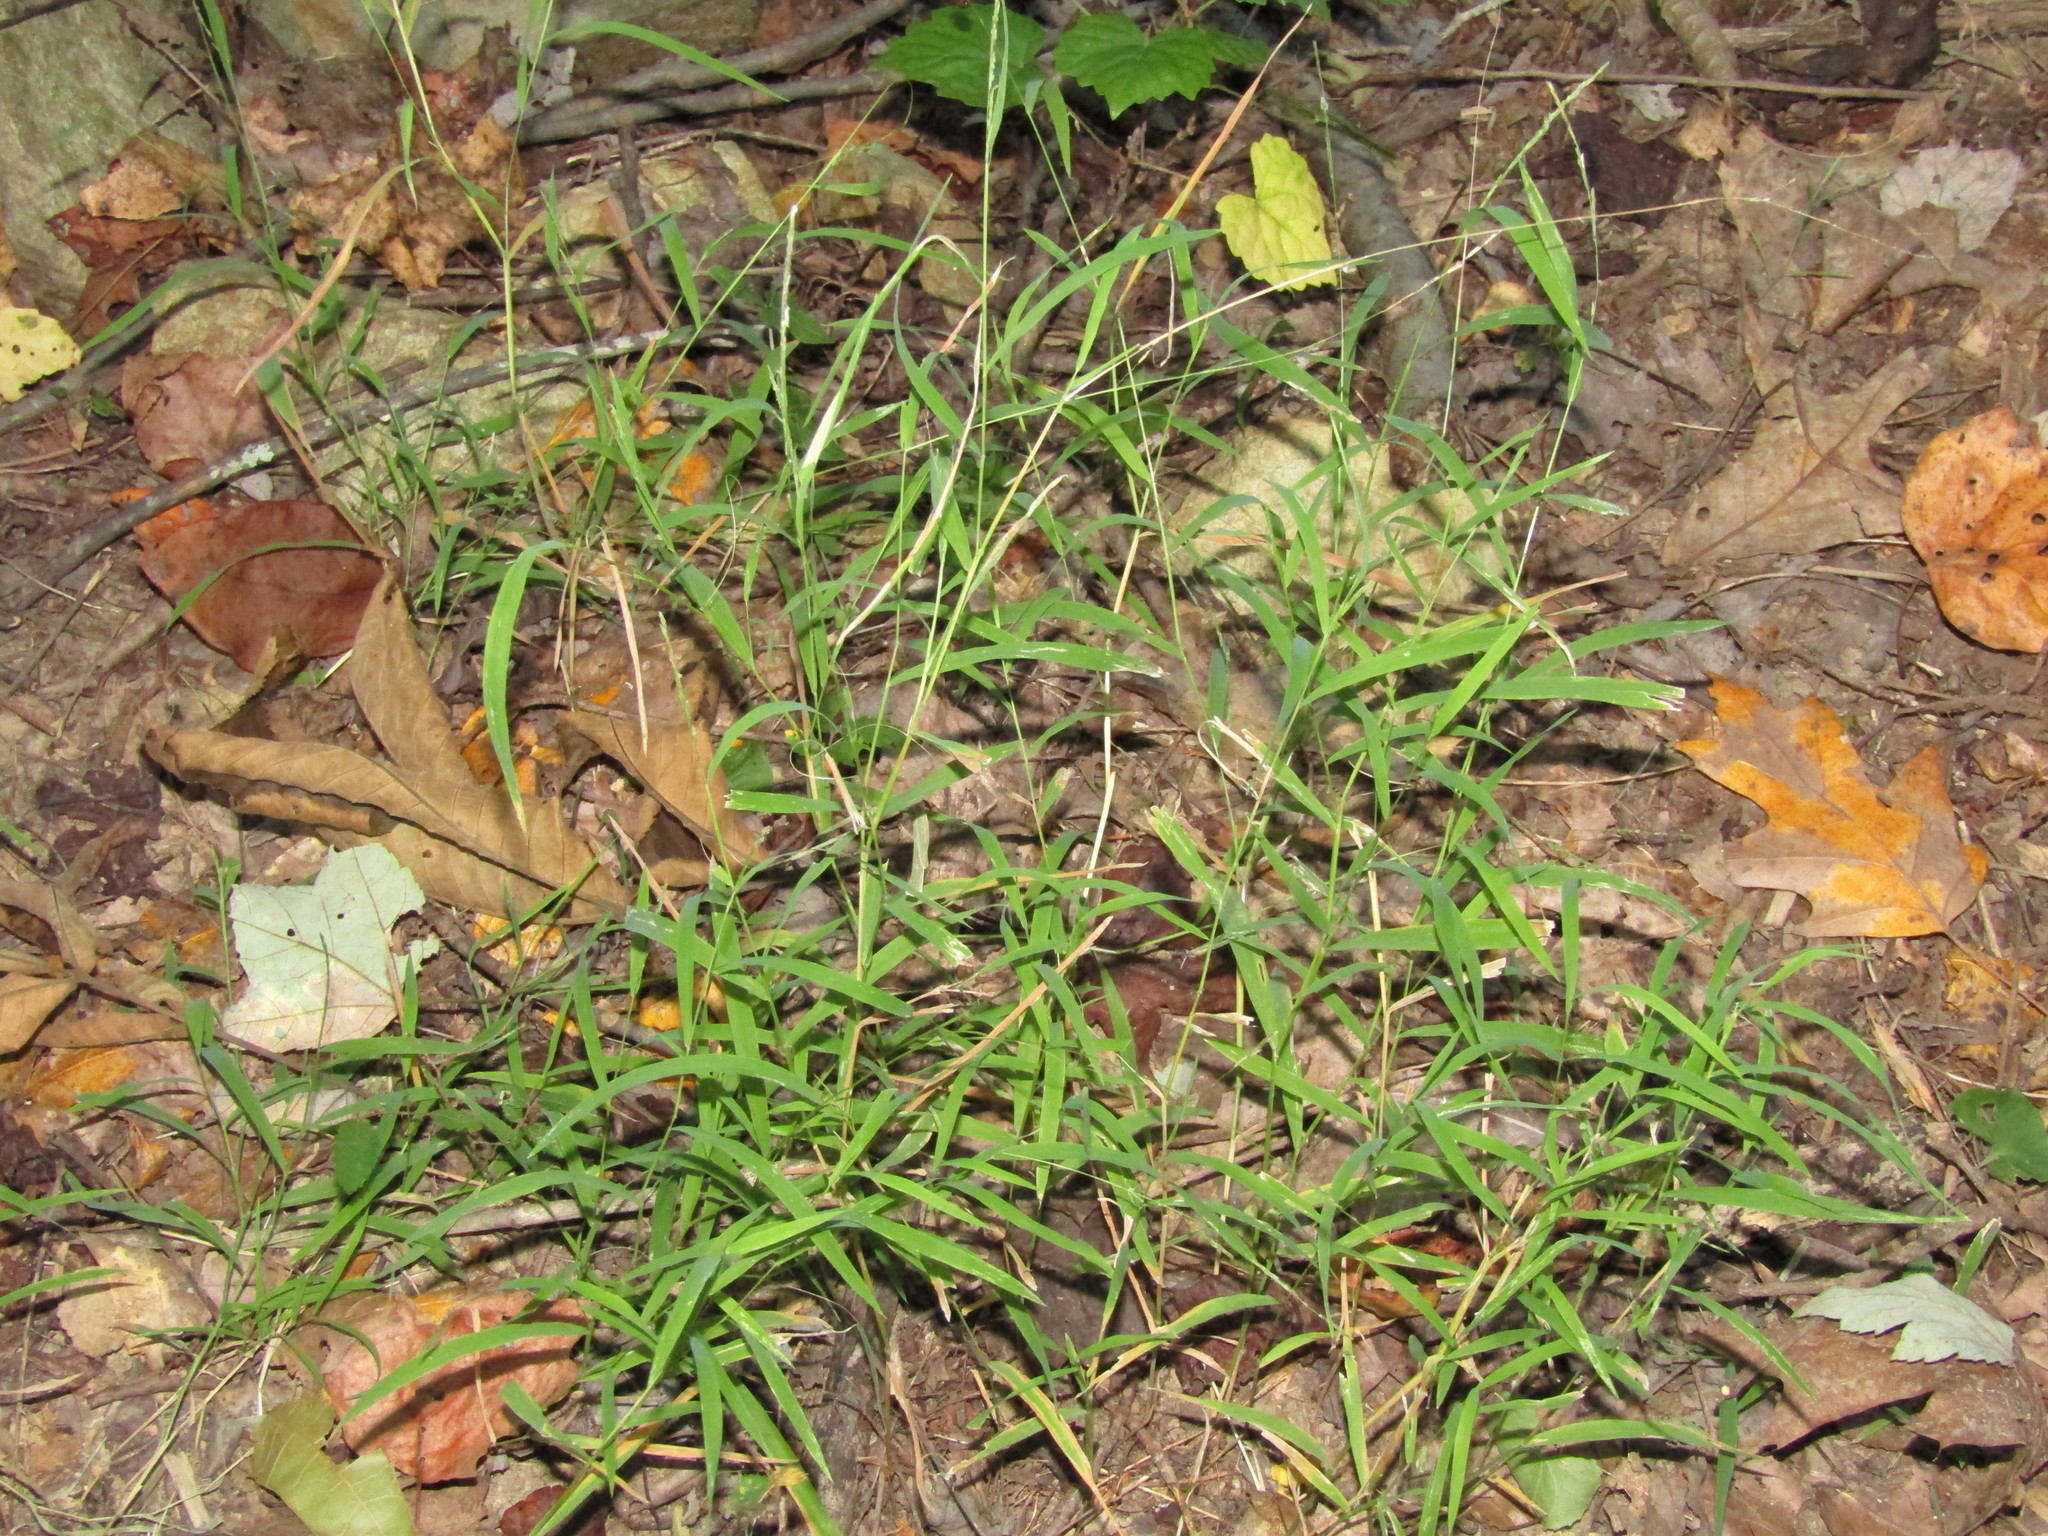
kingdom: Plantae
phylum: Tracheophyta
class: Liliopsida
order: Poales
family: Poaceae
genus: Muhlenbergia
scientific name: Muhlenbergia schreberi
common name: Nimblewill
